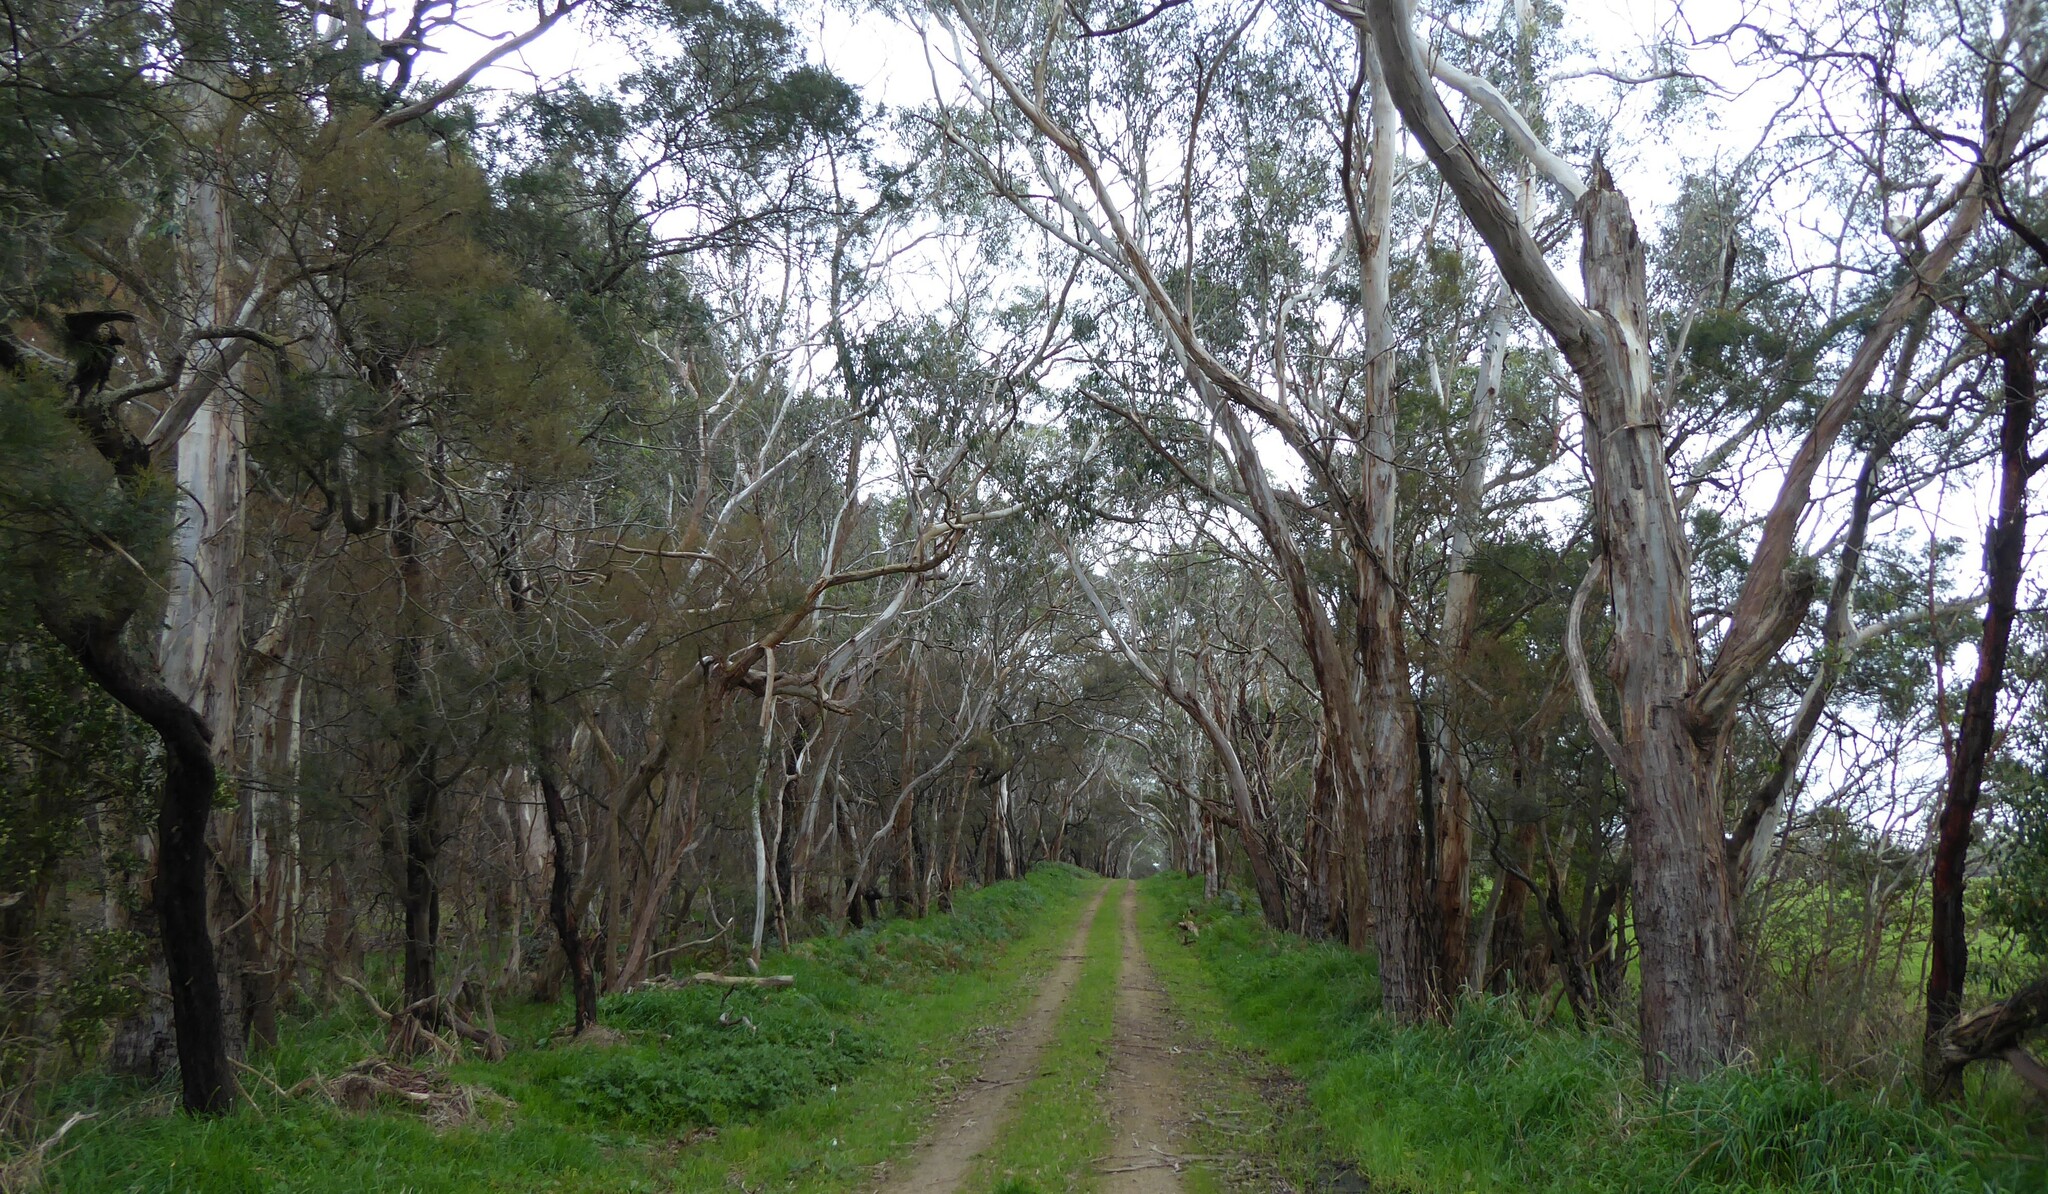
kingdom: Animalia
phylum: Chordata
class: Mammalia
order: Diprotodontia
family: Phascolarctidae
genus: Phascolarctos
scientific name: Phascolarctos cinereus
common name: Koala
